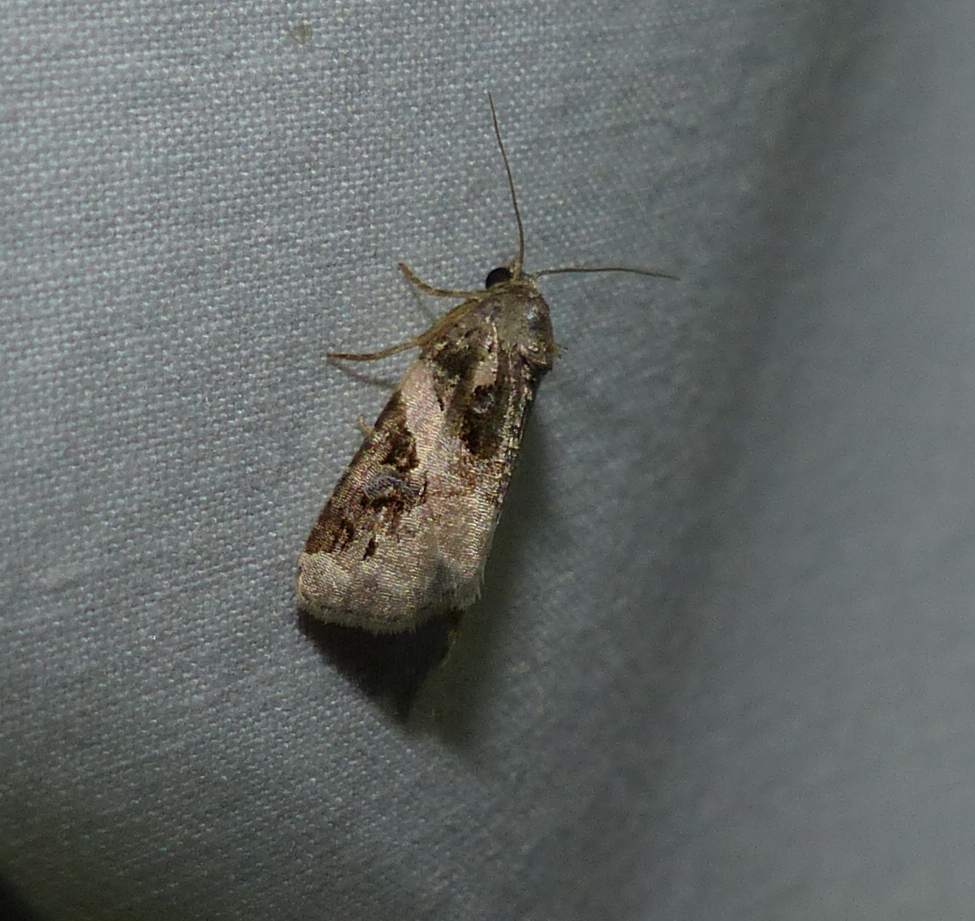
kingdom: Animalia
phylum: Arthropoda
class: Insecta
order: Lepidoptera
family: Noctuidae
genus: Pseudeustrotia
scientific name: Pseudeustrotia carneola
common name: Pink-barred lithacodia moth
